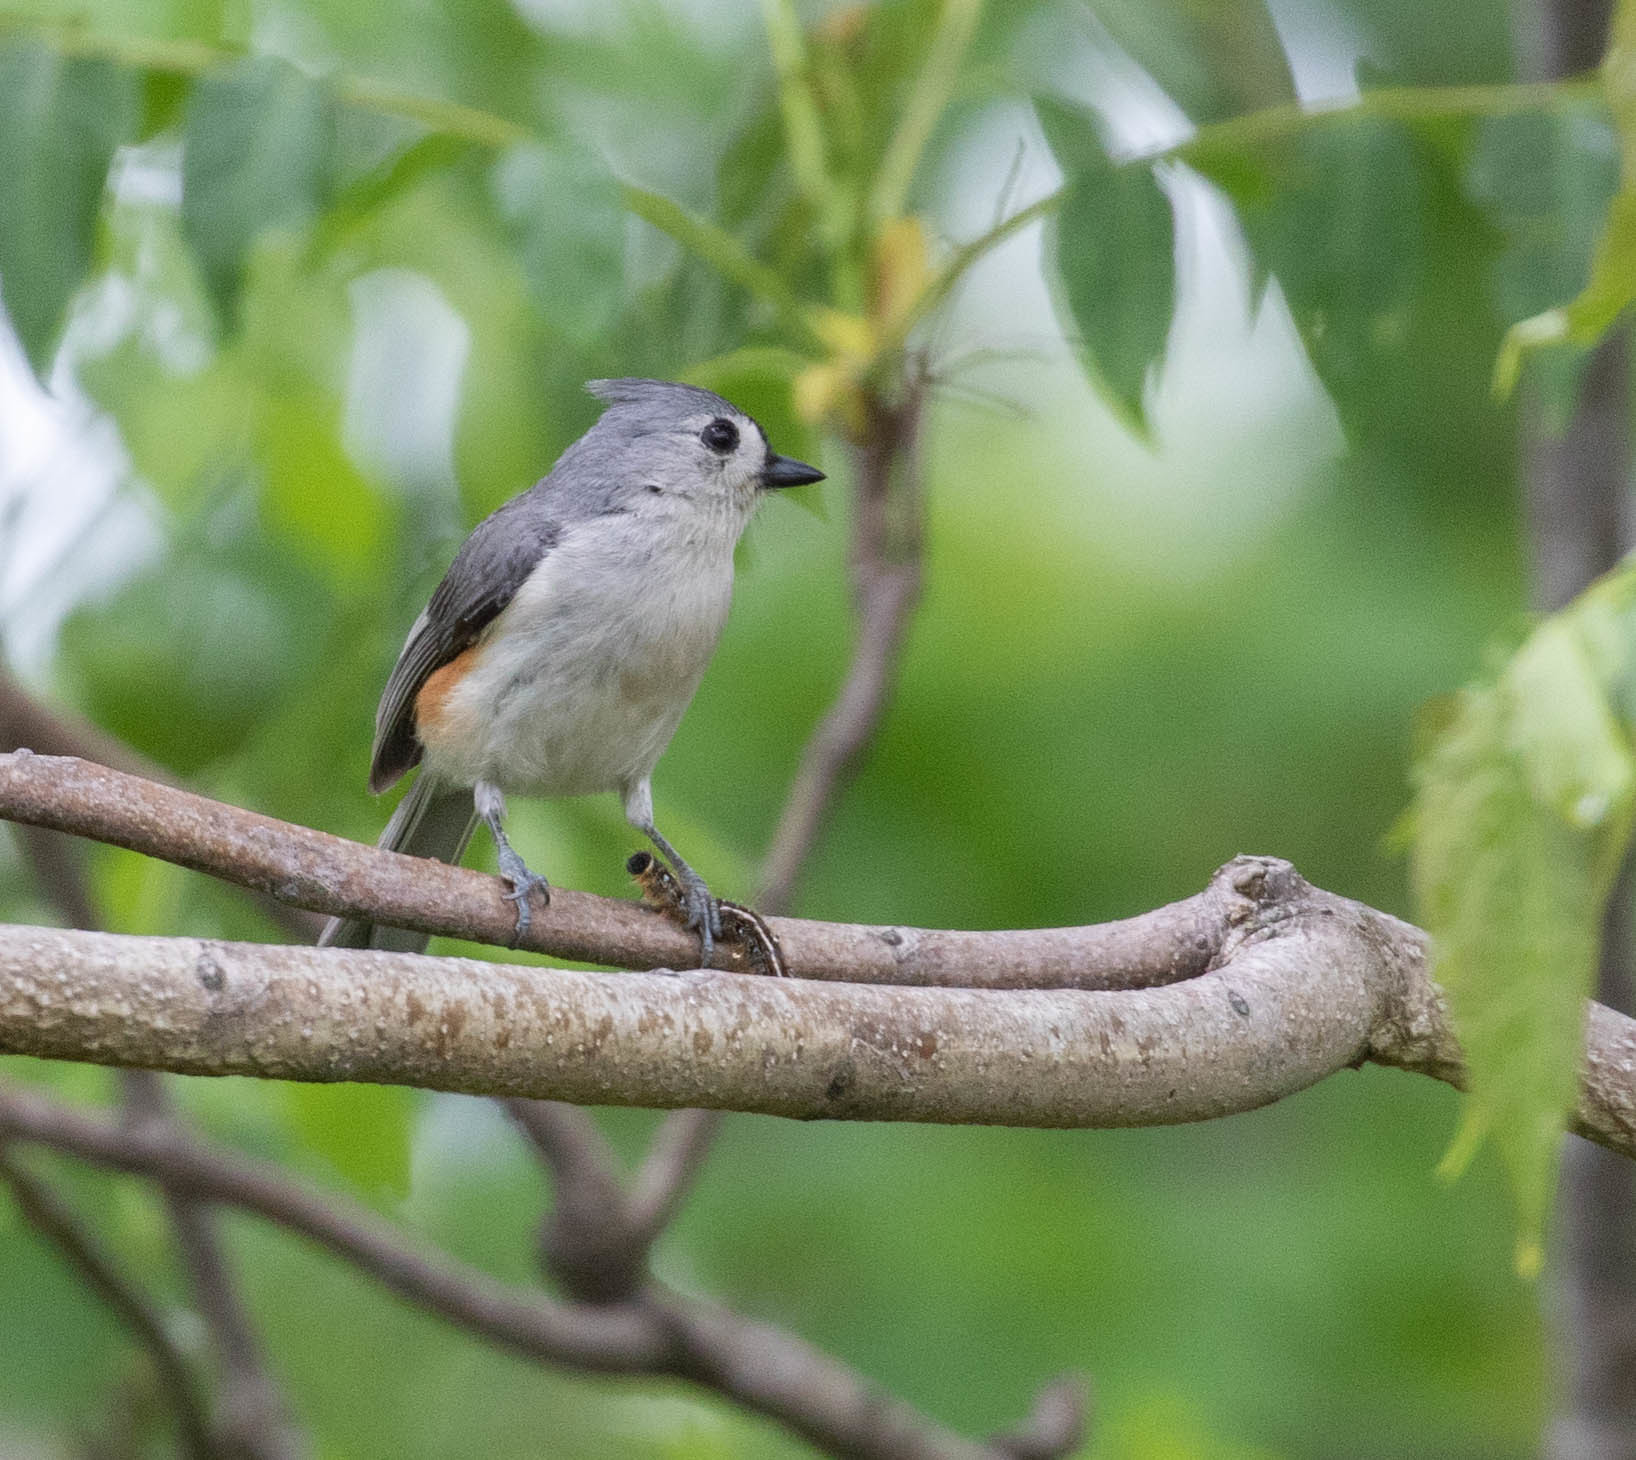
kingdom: Animalia
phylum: Chordata
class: Aves
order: Passeriformes
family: Paridae
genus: Baeolophus
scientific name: Baeolophus bicolor
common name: Tufted titmouse
